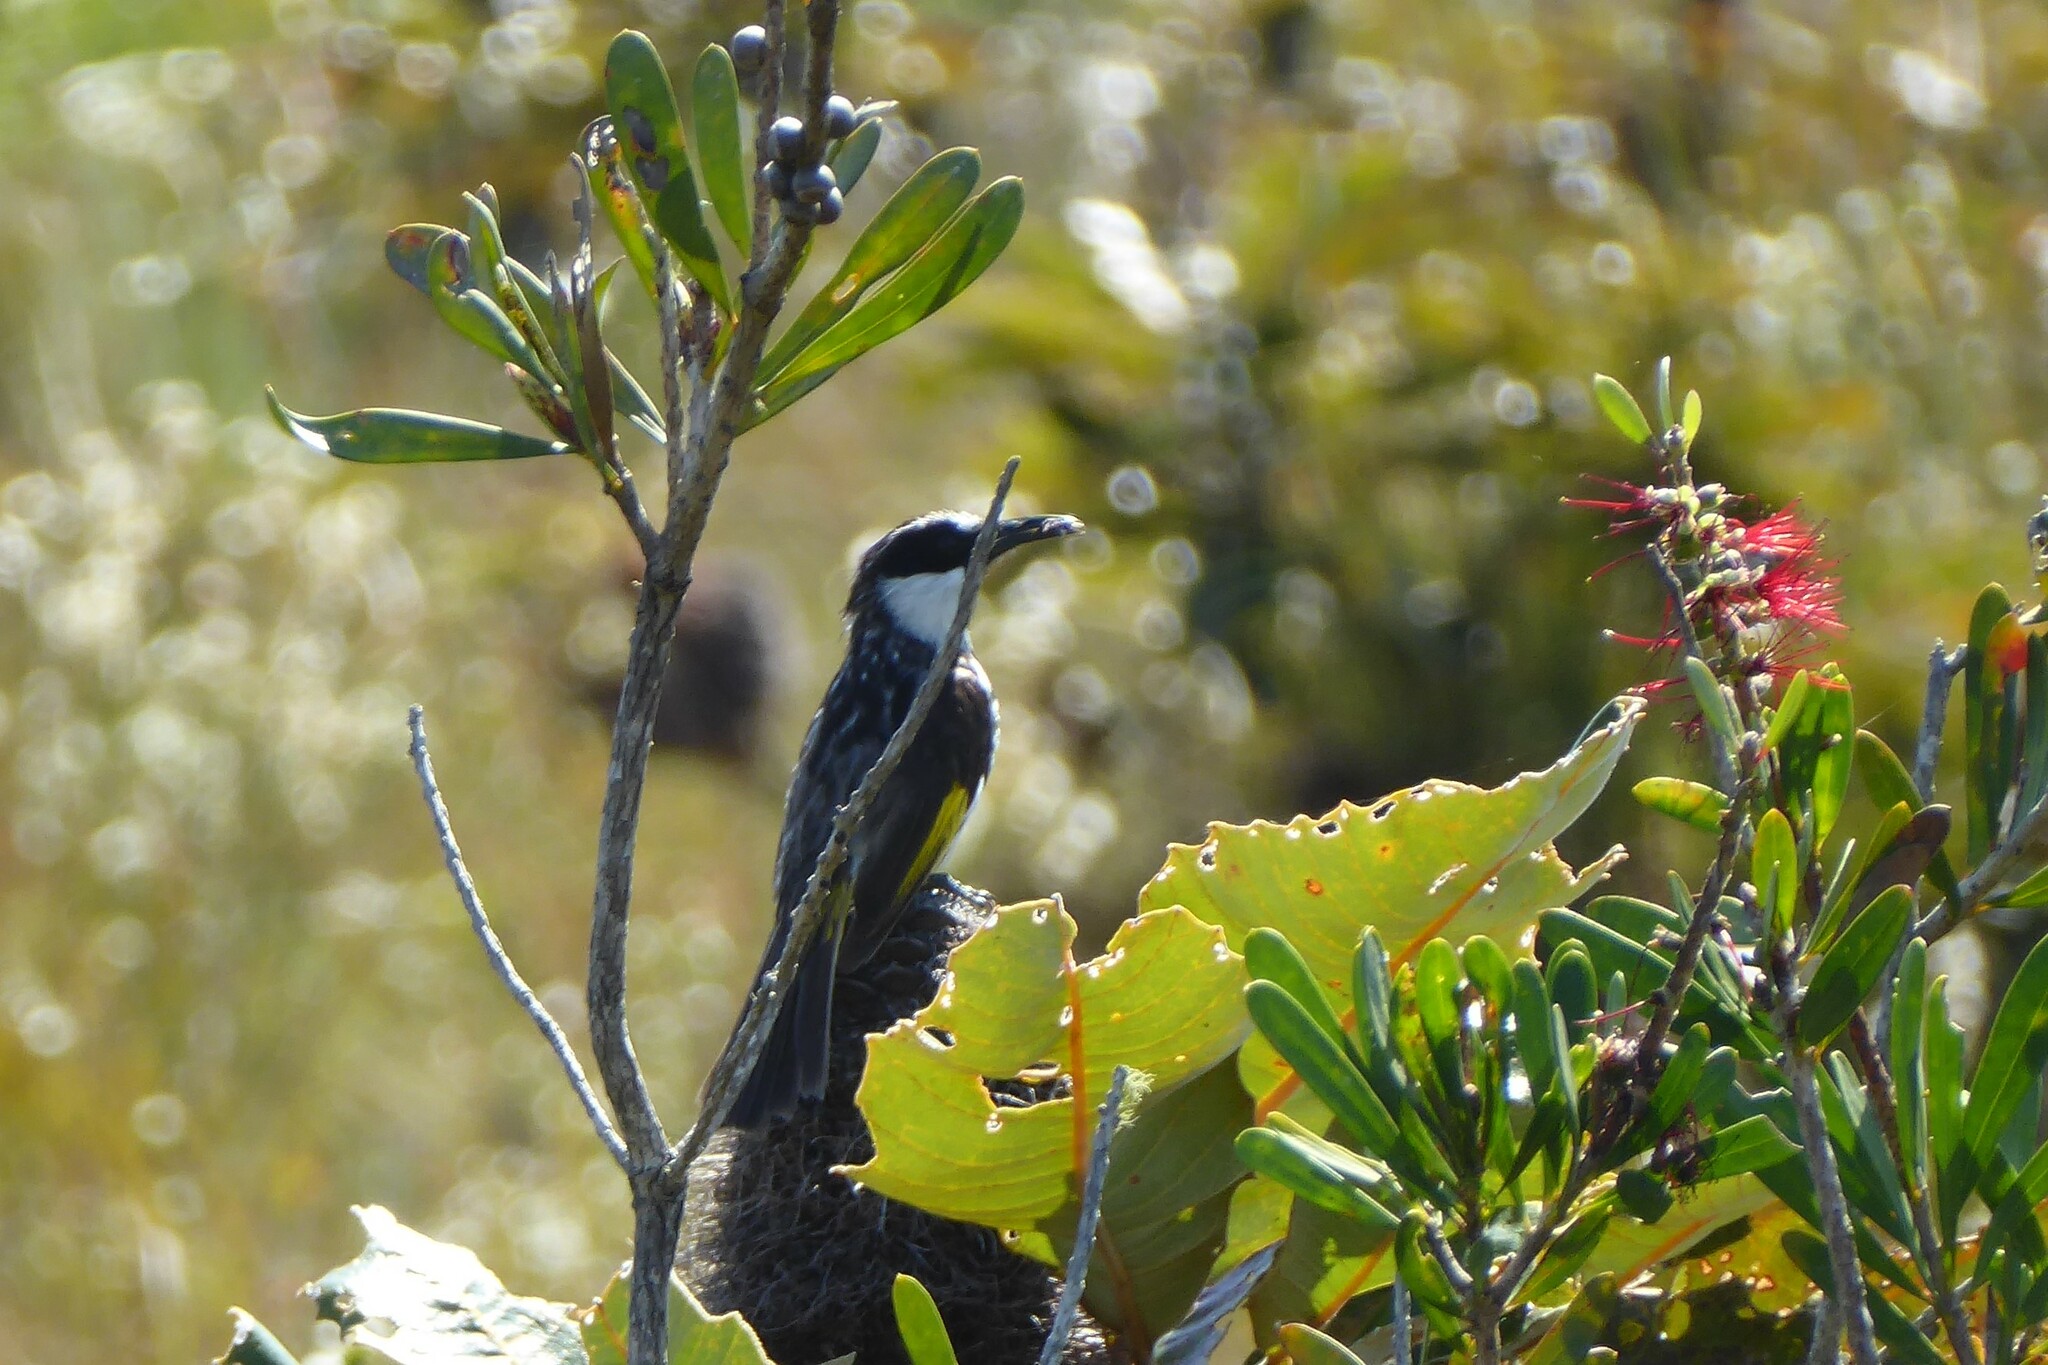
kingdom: Animalia
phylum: Chordata
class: Aves
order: Passeriformes
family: Meliphagidae
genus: Phylidonyris
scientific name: Phylidonyris niger
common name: White-cheeked honeyeater
